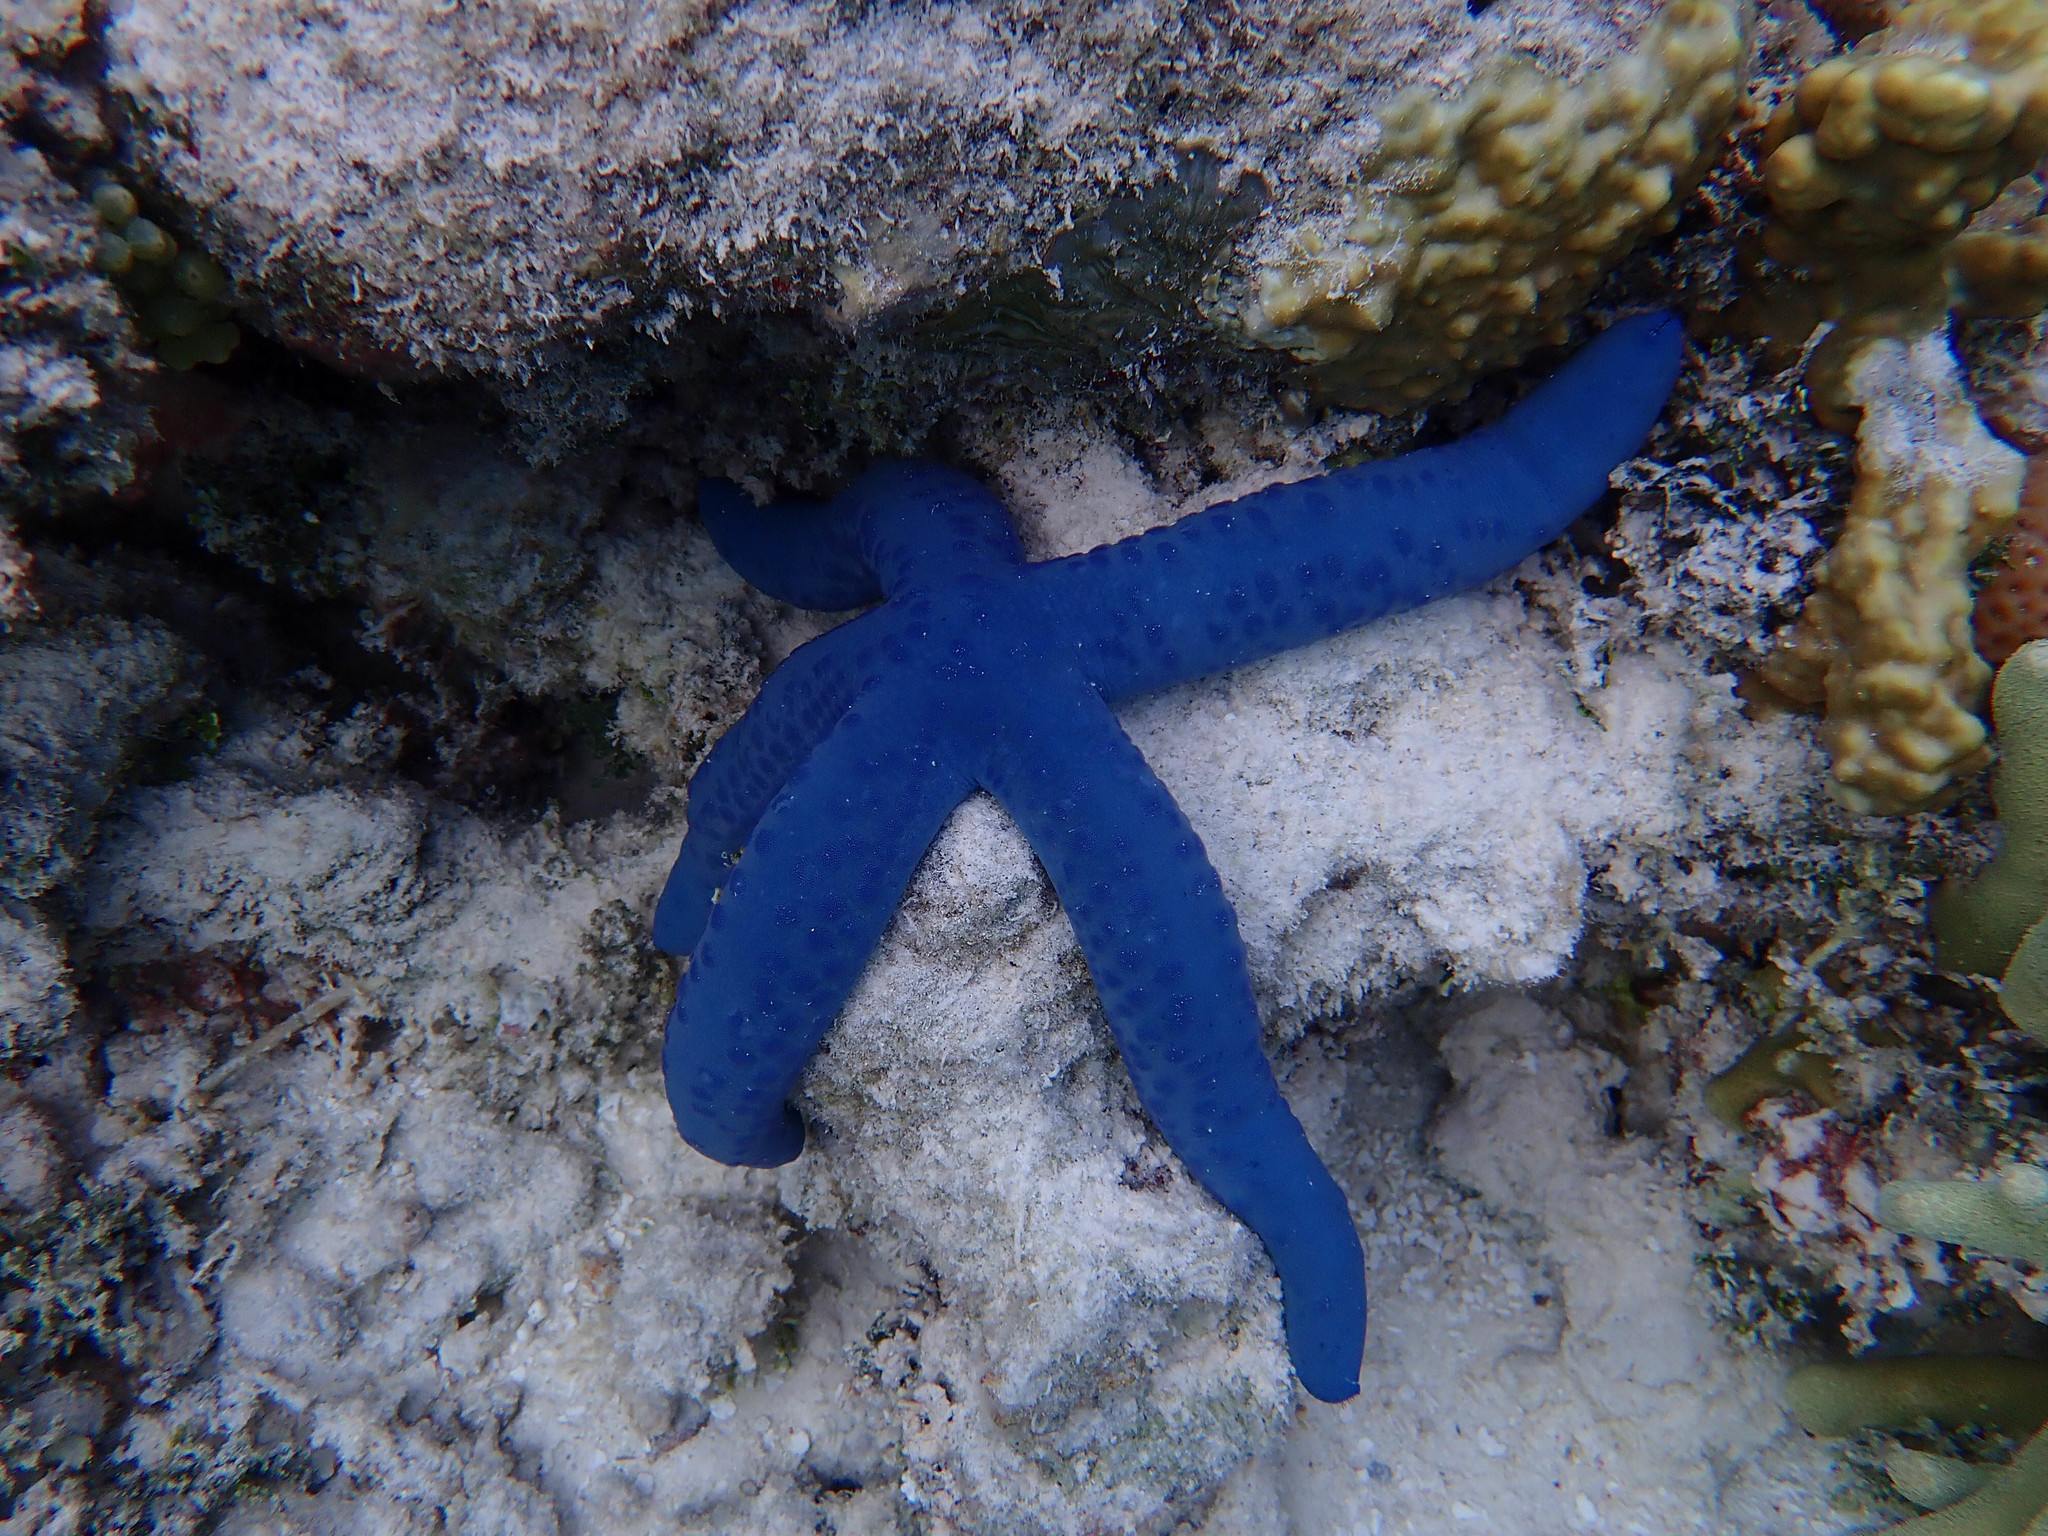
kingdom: Animalia
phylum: Echinodermata
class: Asteroidea
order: Valvatida
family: Ophidiasteridae
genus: Linckia
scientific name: Linckia laevigata
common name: Azure sea star
